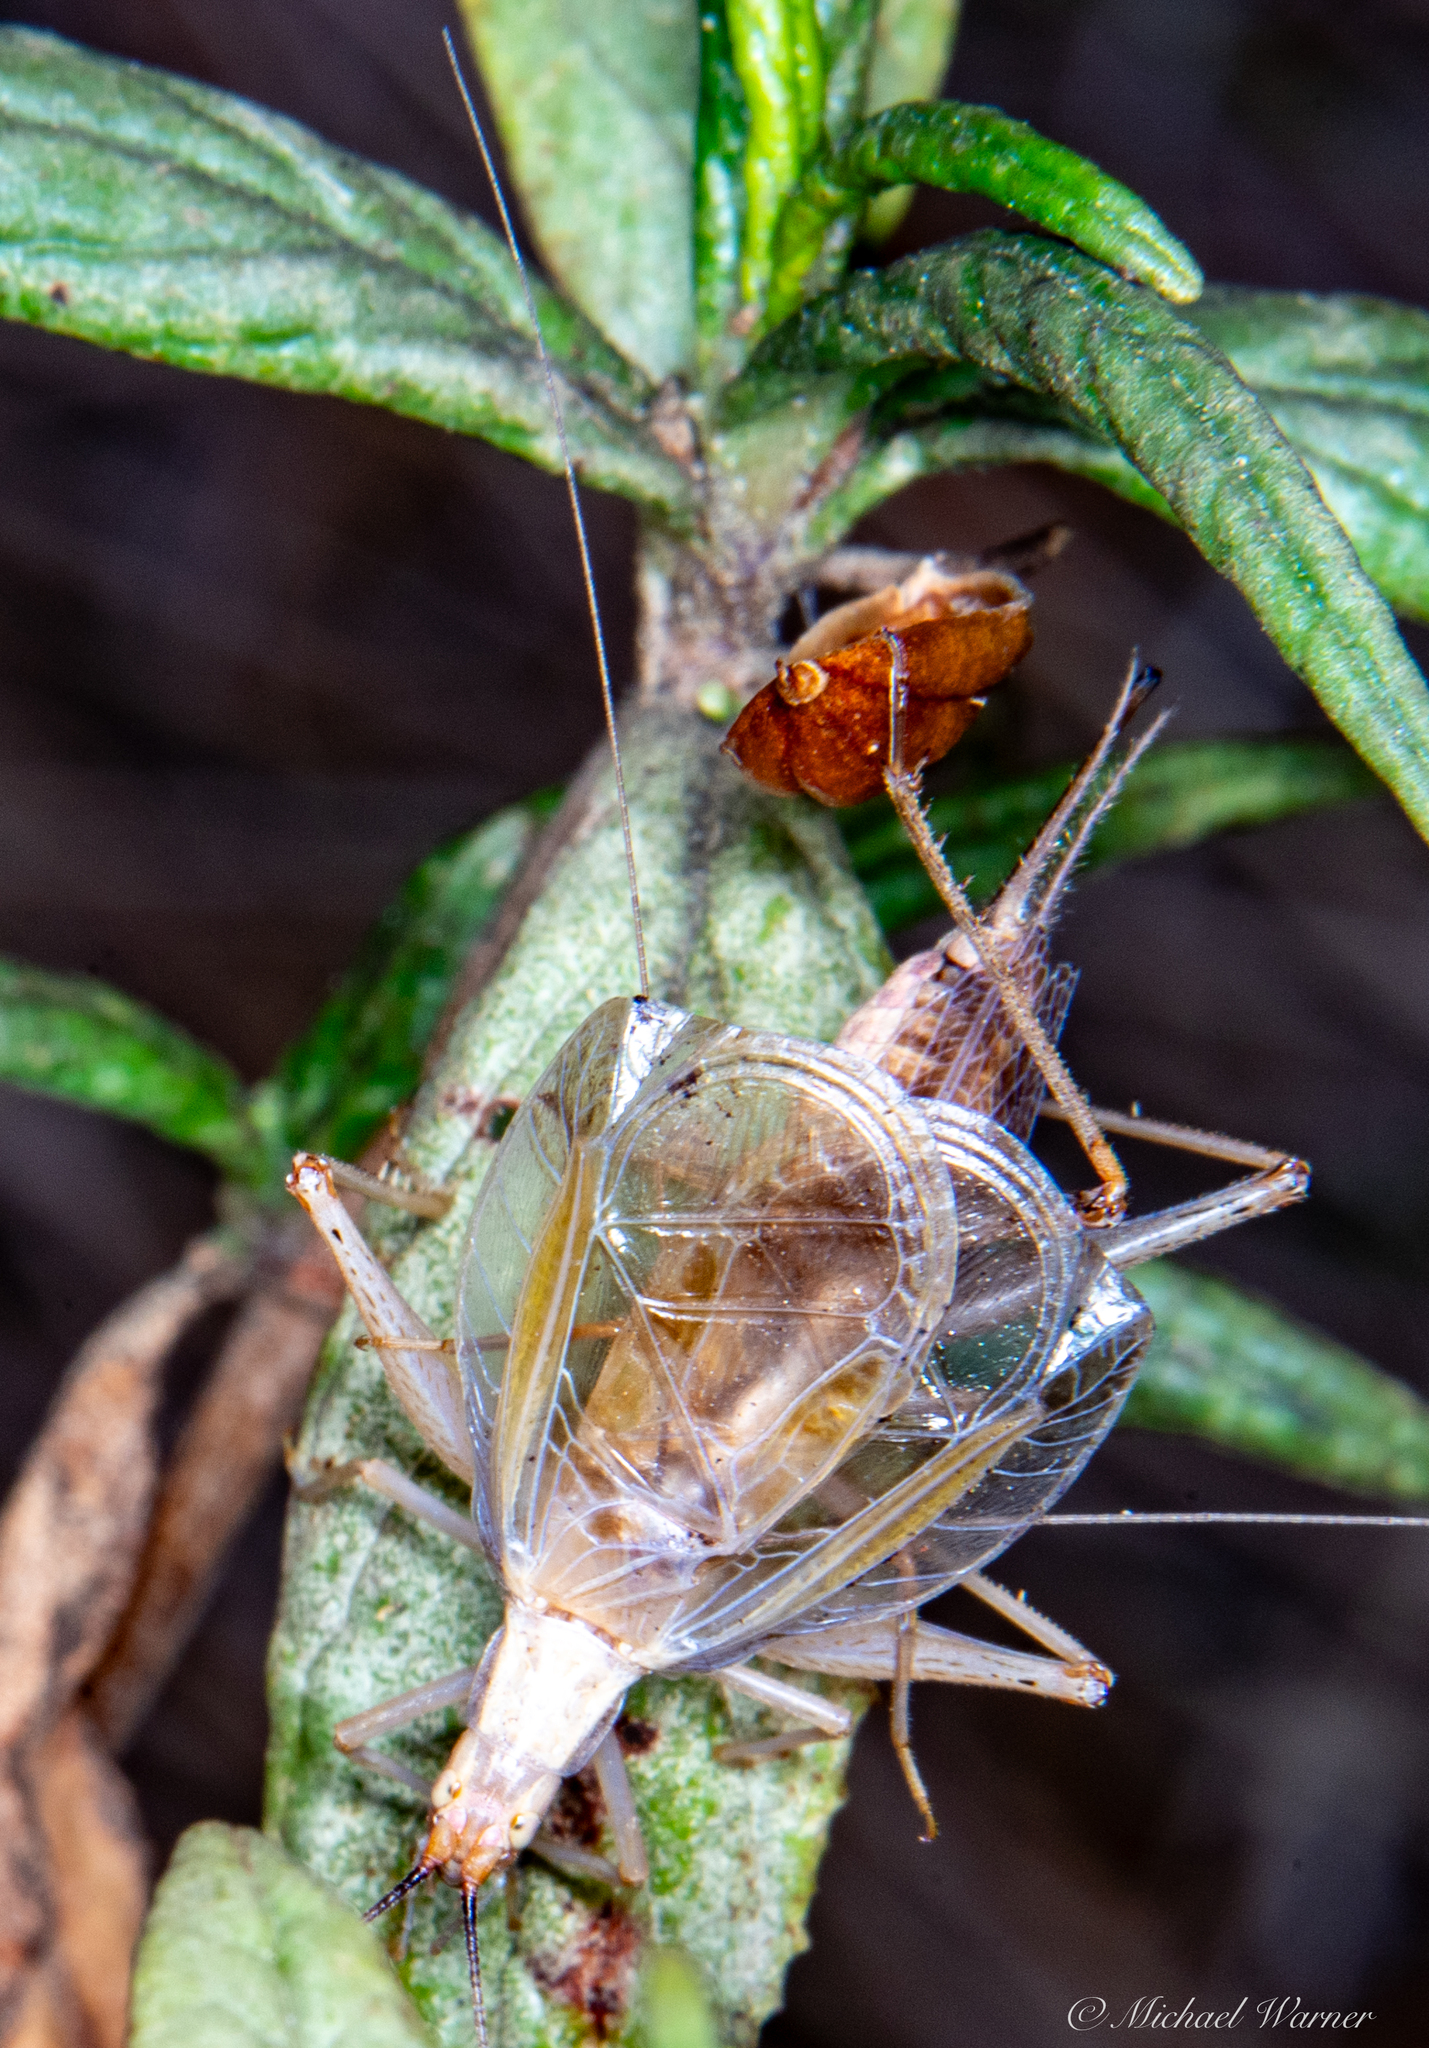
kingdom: Animalia
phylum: Arthropoda
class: Insecta
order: Orthoptera
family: Gryllidae
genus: Oecanthus
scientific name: Oecanthus californicus
